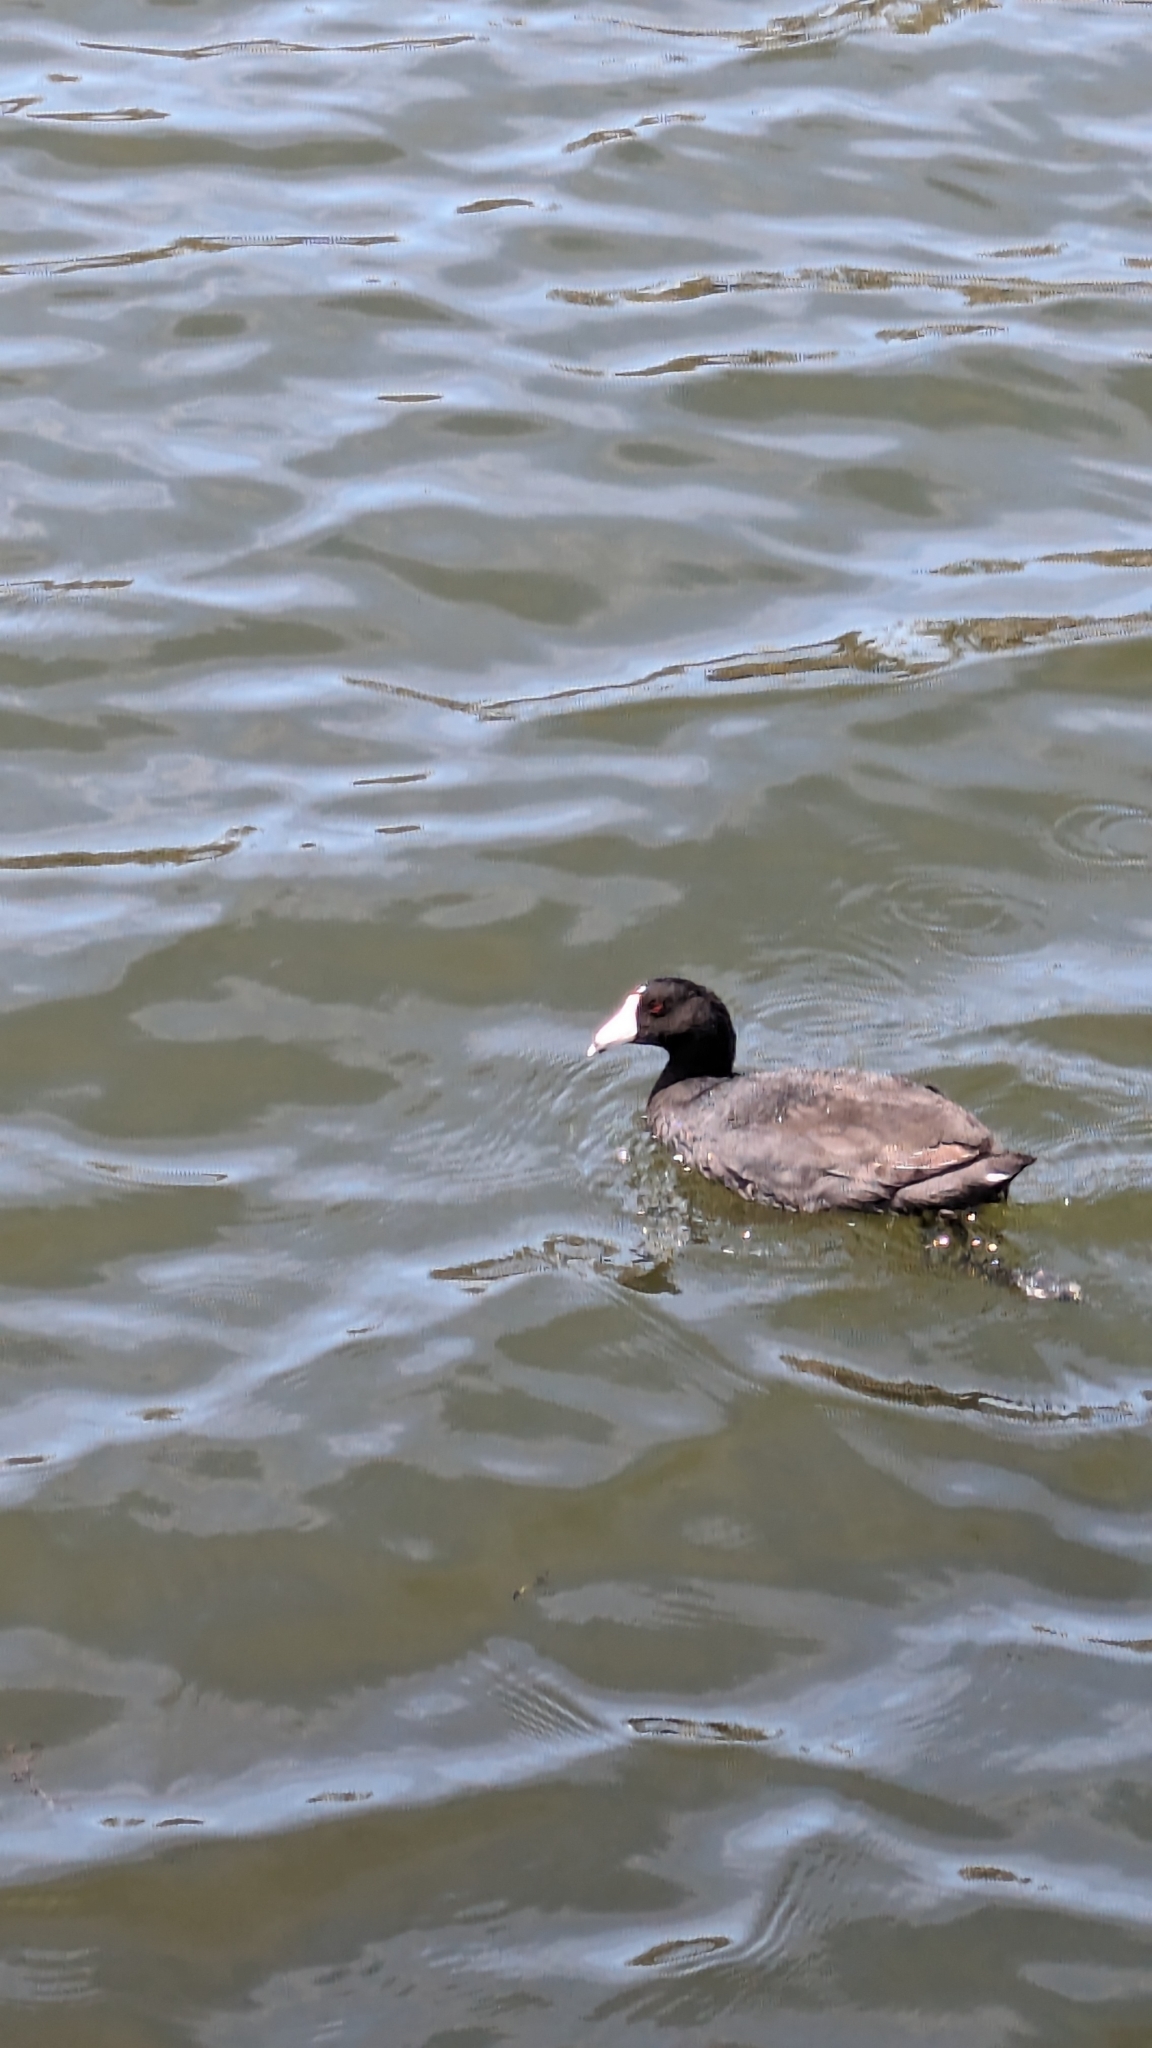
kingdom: Animalia
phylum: Chordata
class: Aves
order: Gruiformes
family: Rallidae
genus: Fulica
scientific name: Fulica americana
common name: American coot
